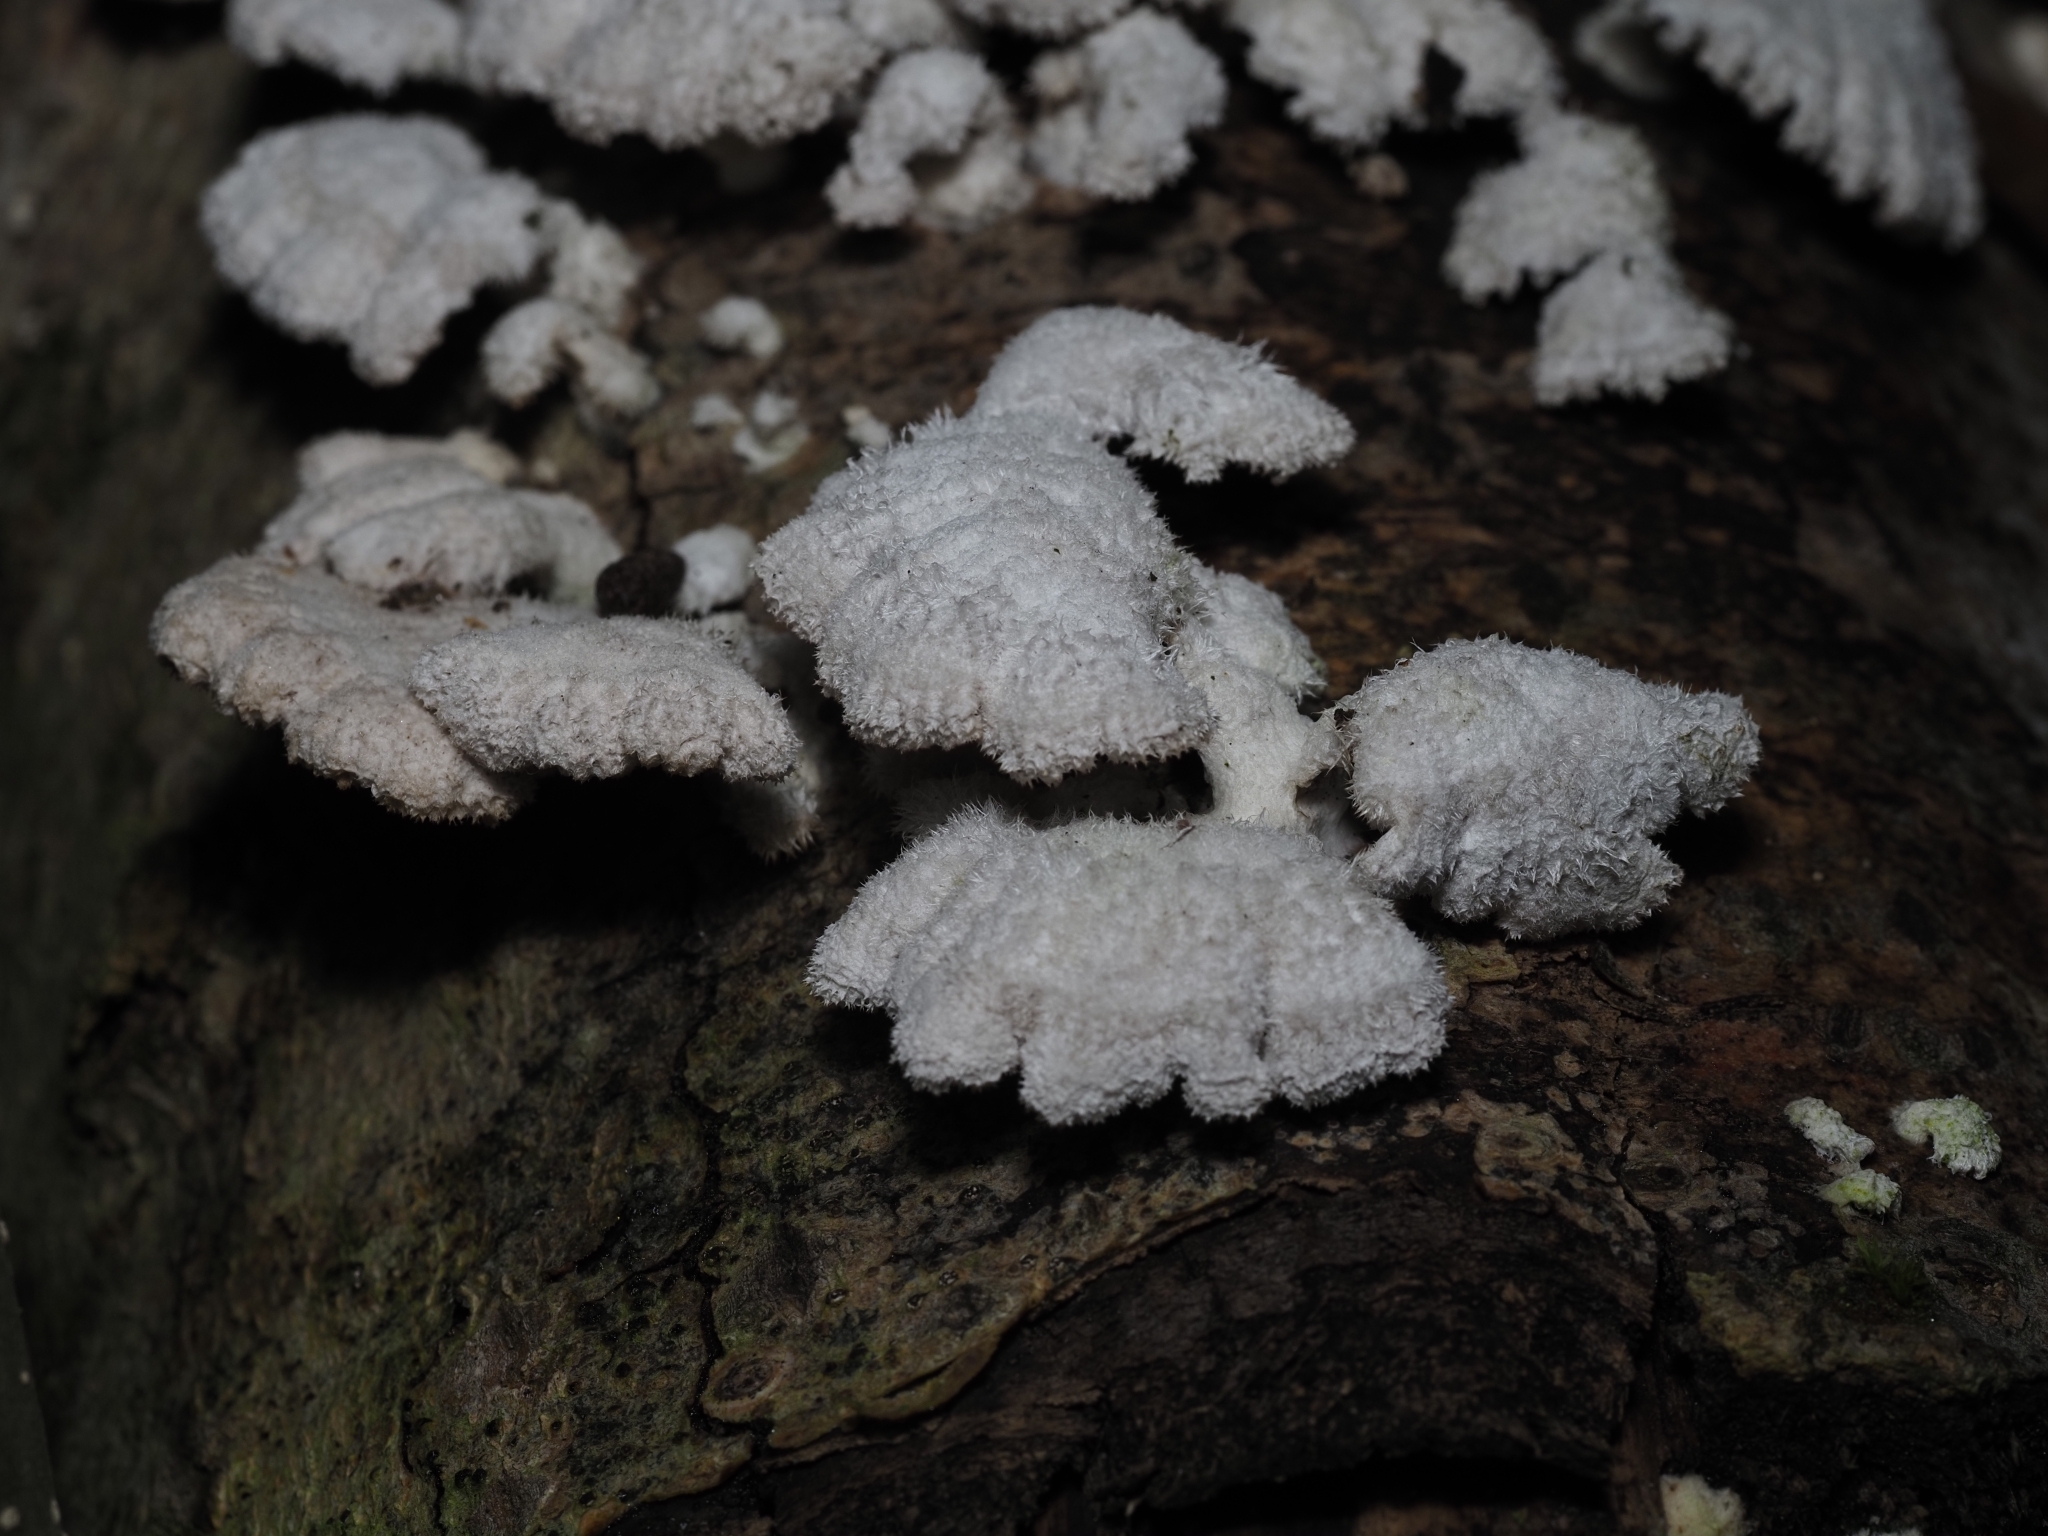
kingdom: Fungi
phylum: Basidiomycota
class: Agaricomycetes
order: Agaricales
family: Schizophyllaceae
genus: Schizophyllum
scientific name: Schizophyllum commune
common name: Common porecrust
